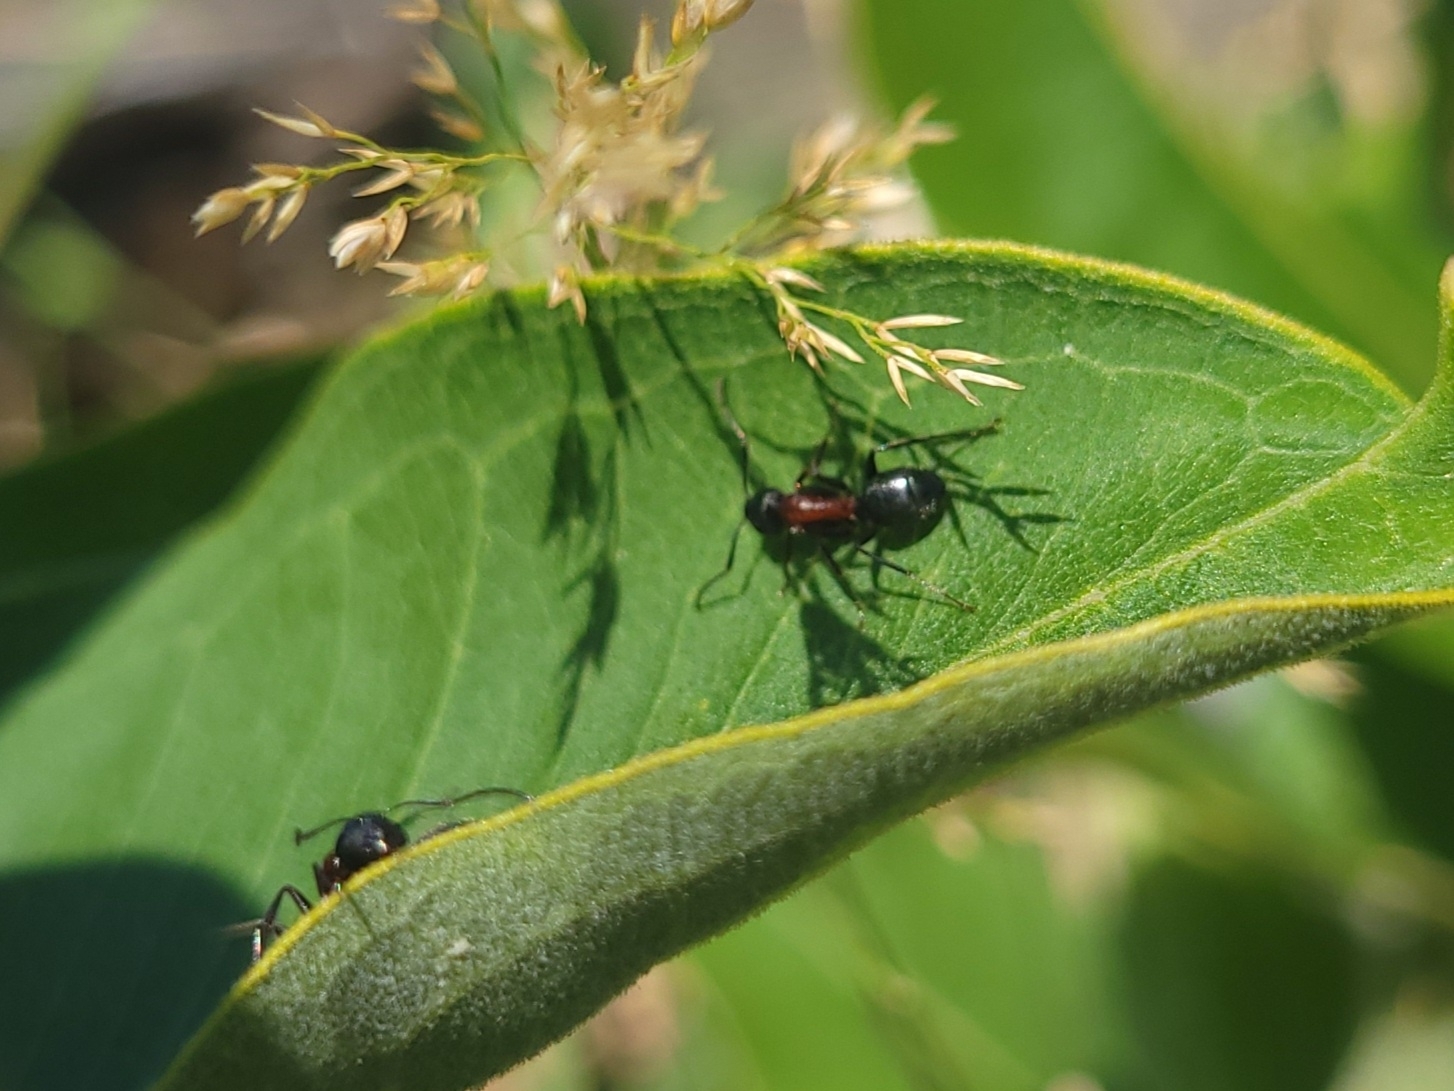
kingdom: Animalia
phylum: Arthropoda
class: Insecta
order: Hymenoptera
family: Formicidae
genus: Camponotus
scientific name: Camponotus novaeboracensis
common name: New york carpenter ant
